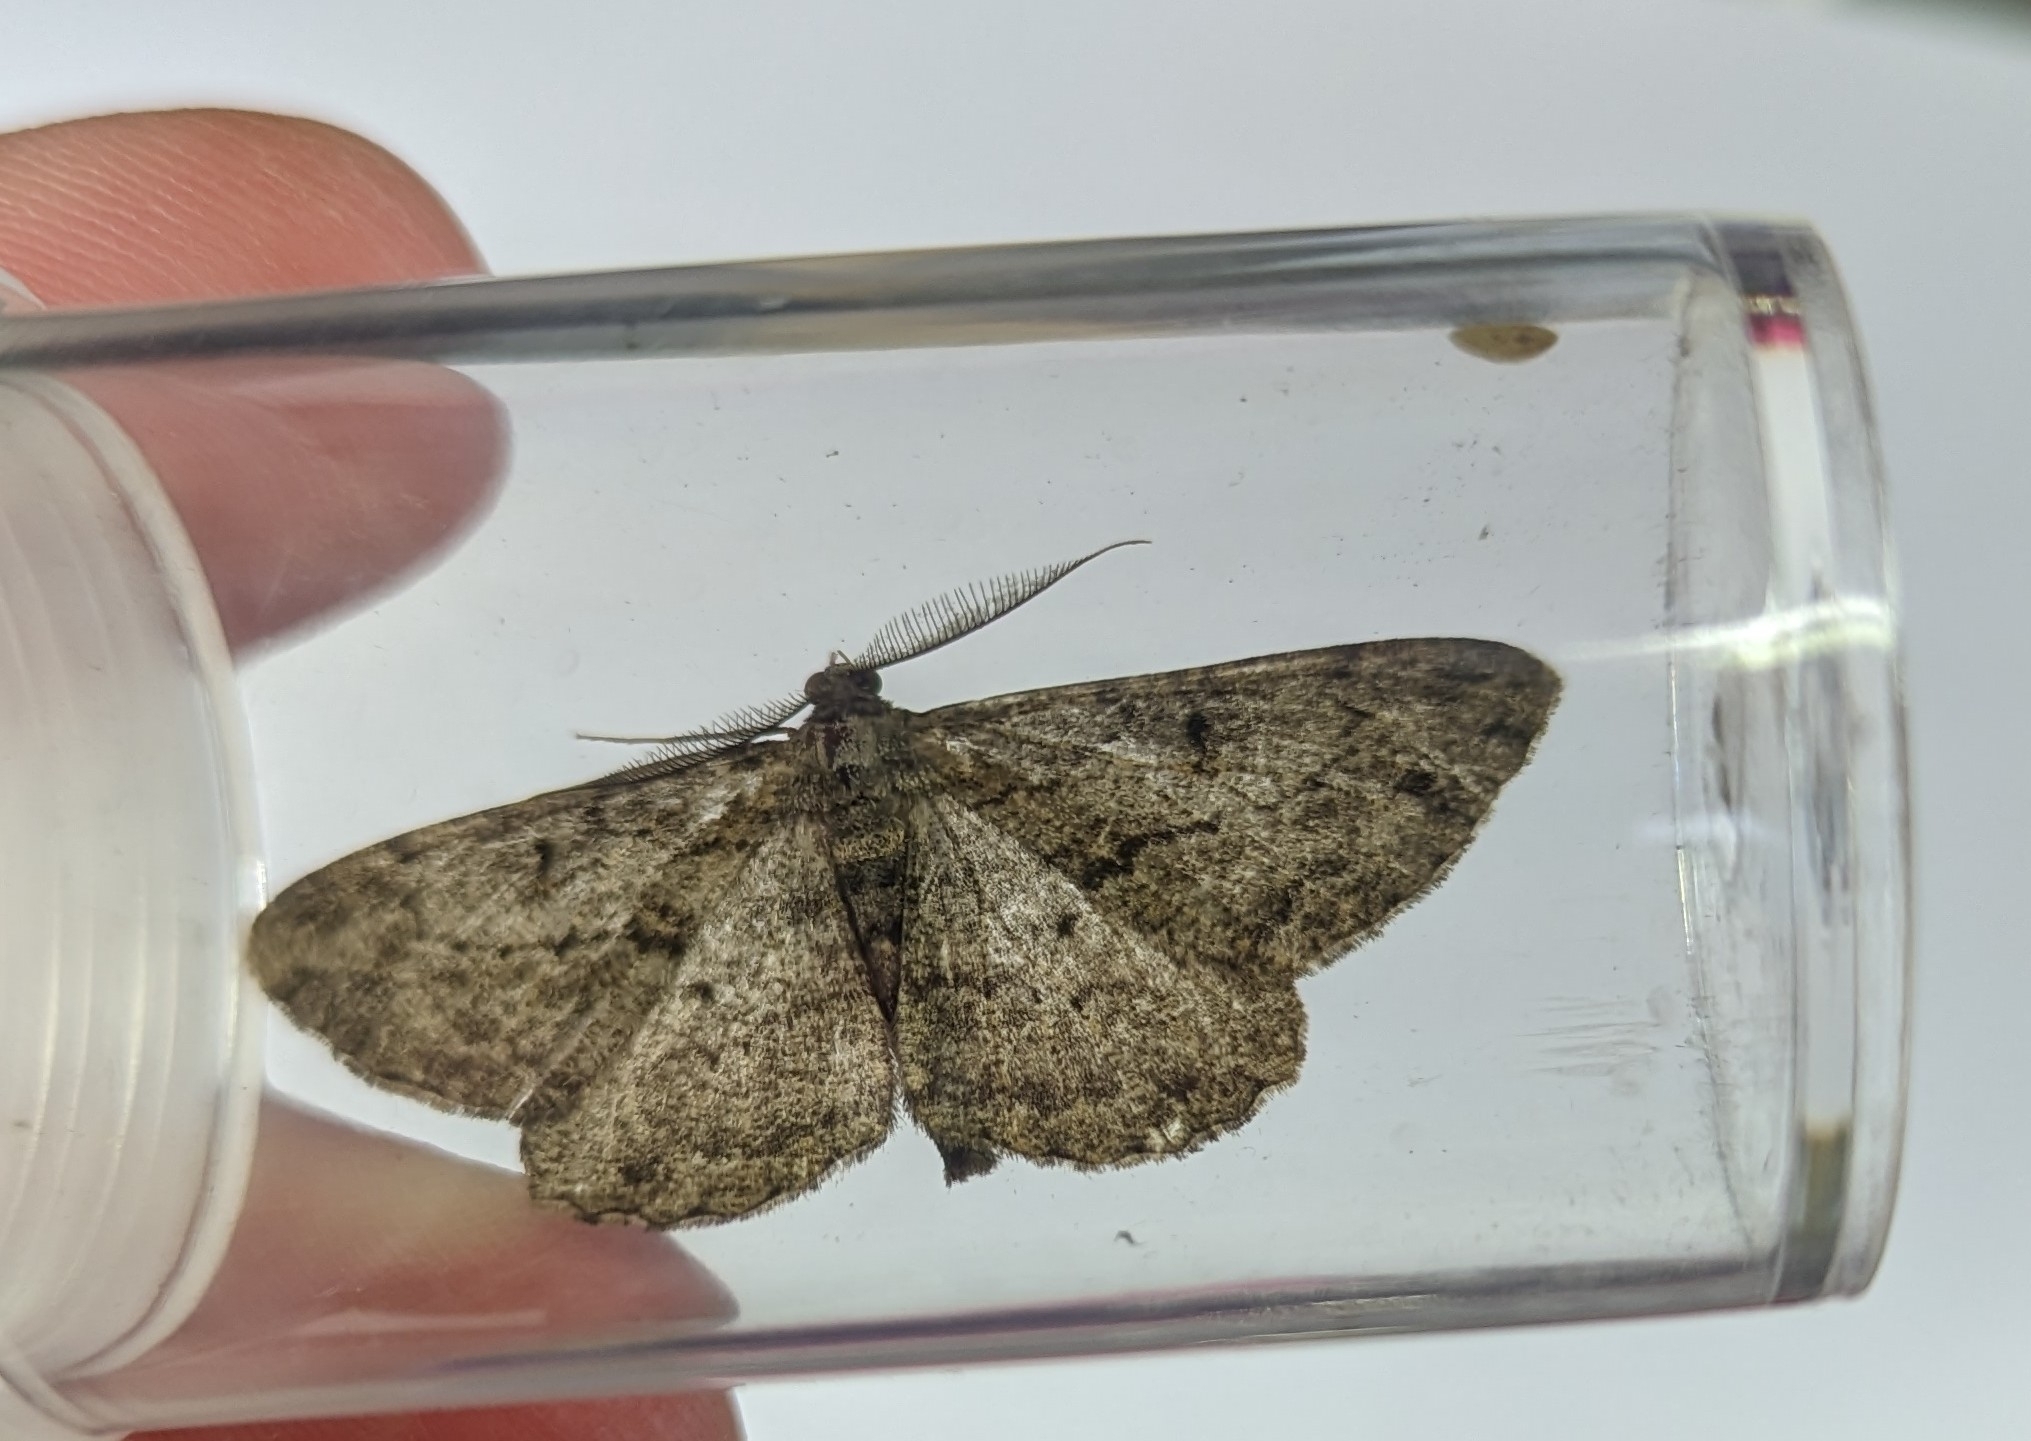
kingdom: Animalia
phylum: Arthropoda
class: Insecta
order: Lepidoptera
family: Geometridae
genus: Peribatodes
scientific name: Peribatodes rhomboidaria
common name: Willow beauty
